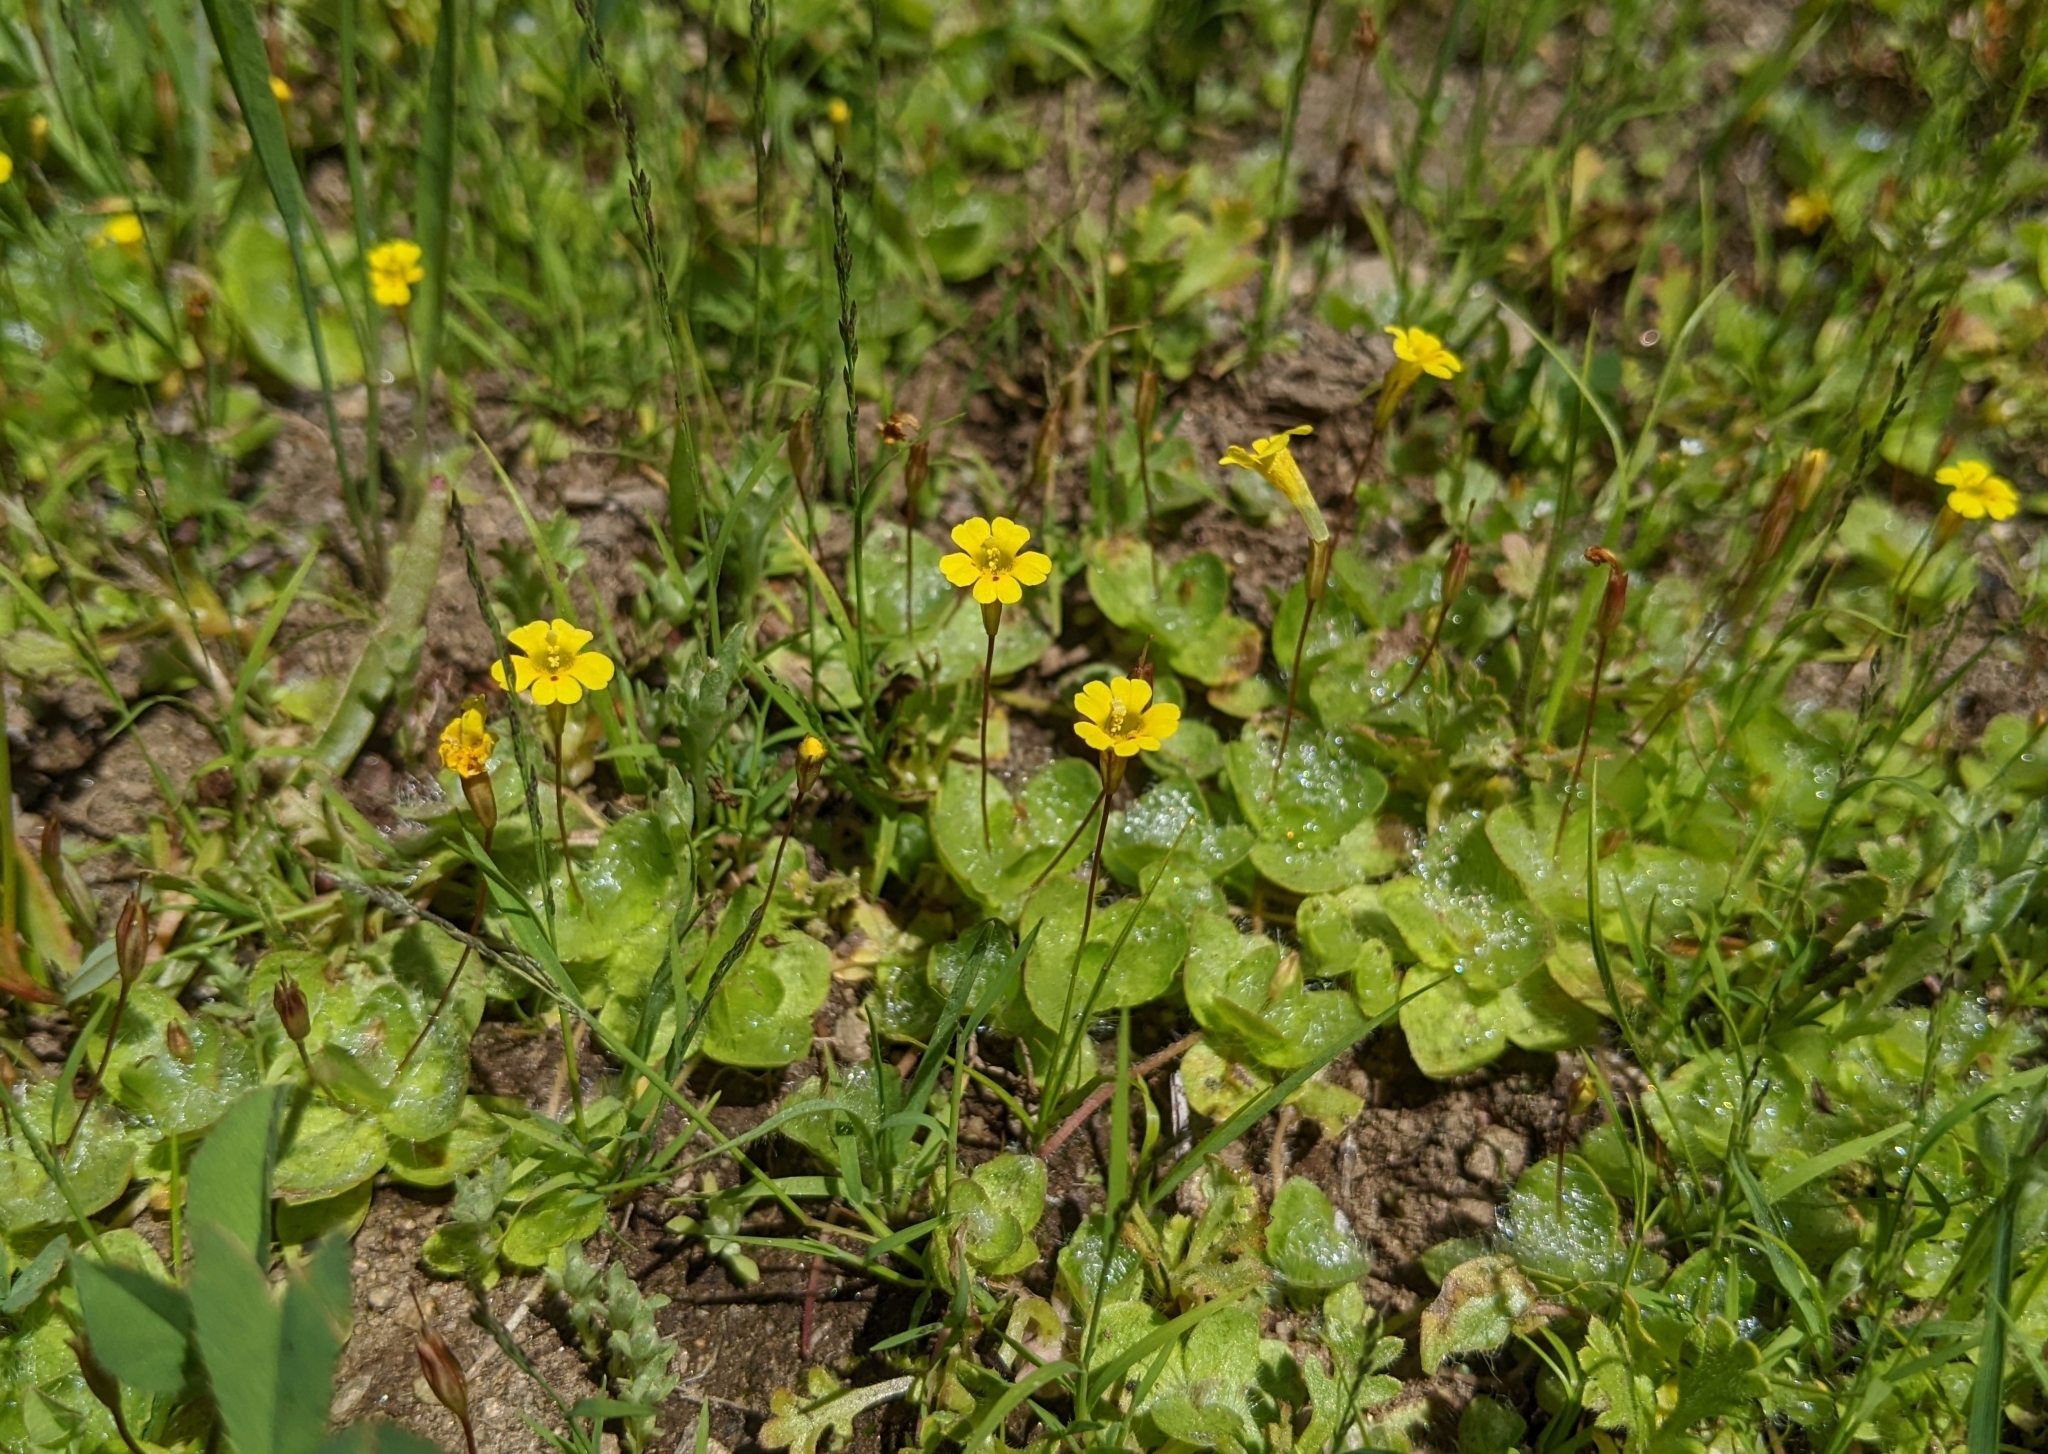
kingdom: Plantae
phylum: Tracheophyta
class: Magnoliopsida
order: Lamiales
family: Phrymaceae
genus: Erythranthe
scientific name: Erythranthe primuloides
